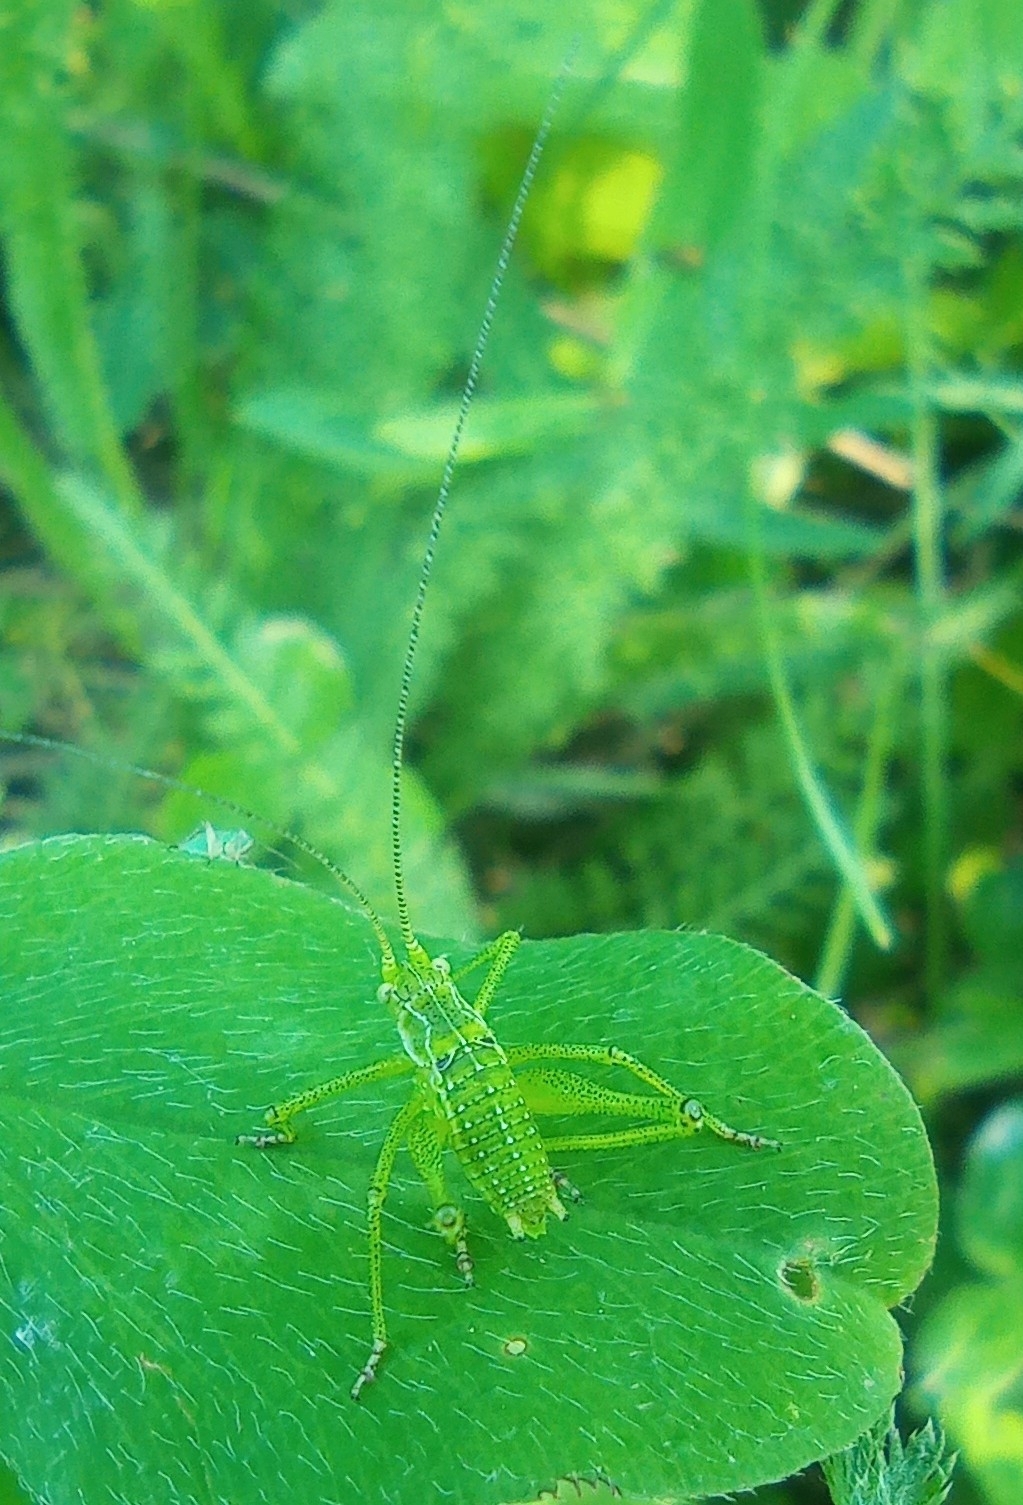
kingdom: Animalia
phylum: Arthropoda
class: Insecta
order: Orthoptera
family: Tettigoniidae
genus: Leptophyes
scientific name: Leptophyes albovittata
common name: Striped bush-cricket
